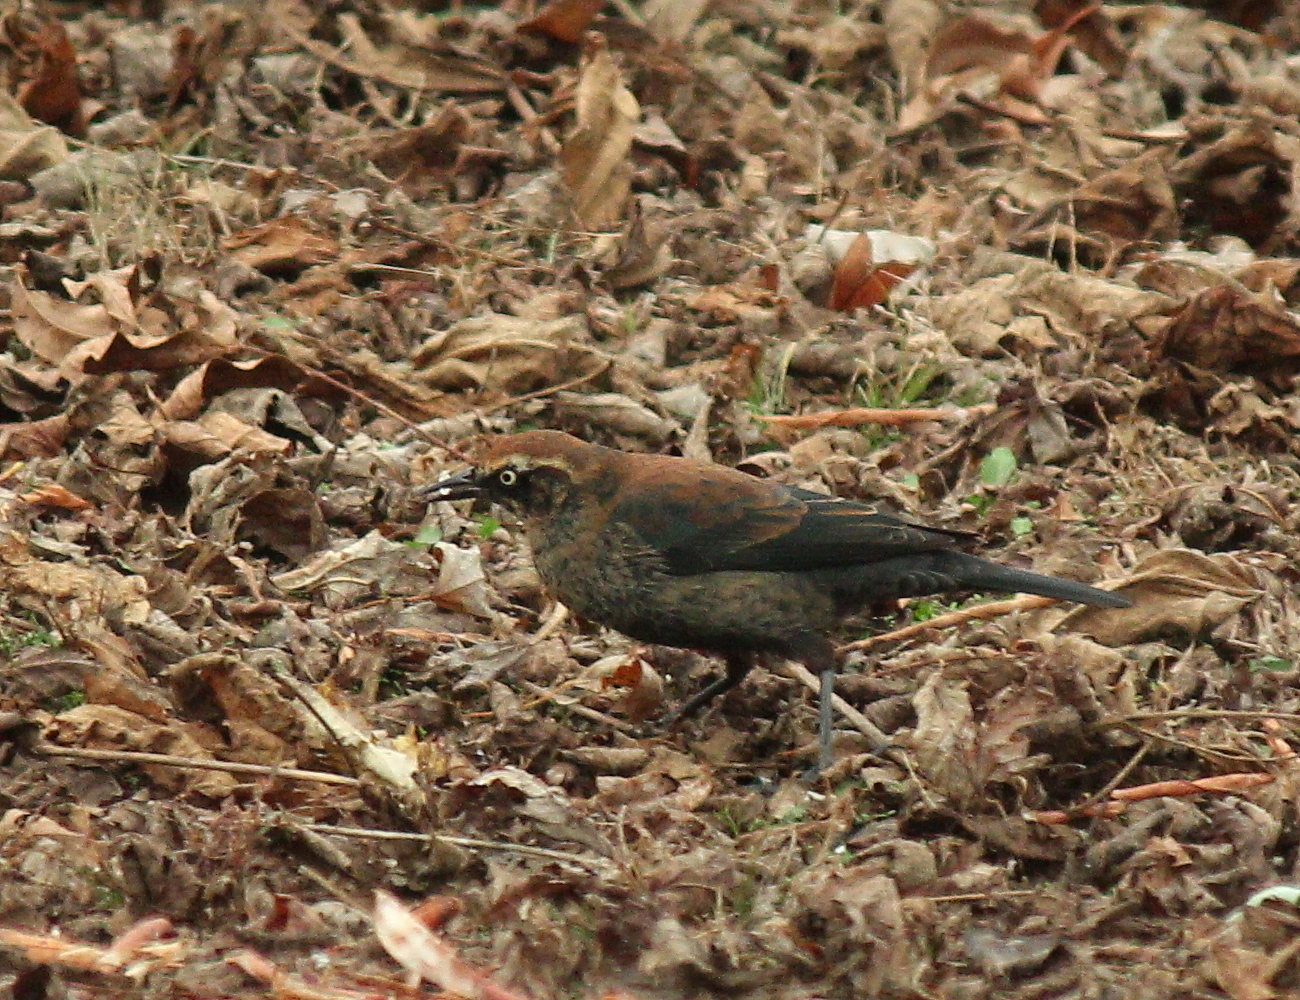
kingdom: Animalia
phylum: Chordata
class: Aves
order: Passeriformes
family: Icteridae
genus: Euphagus
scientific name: Euphagus carolinus
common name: Rusty blackbird
